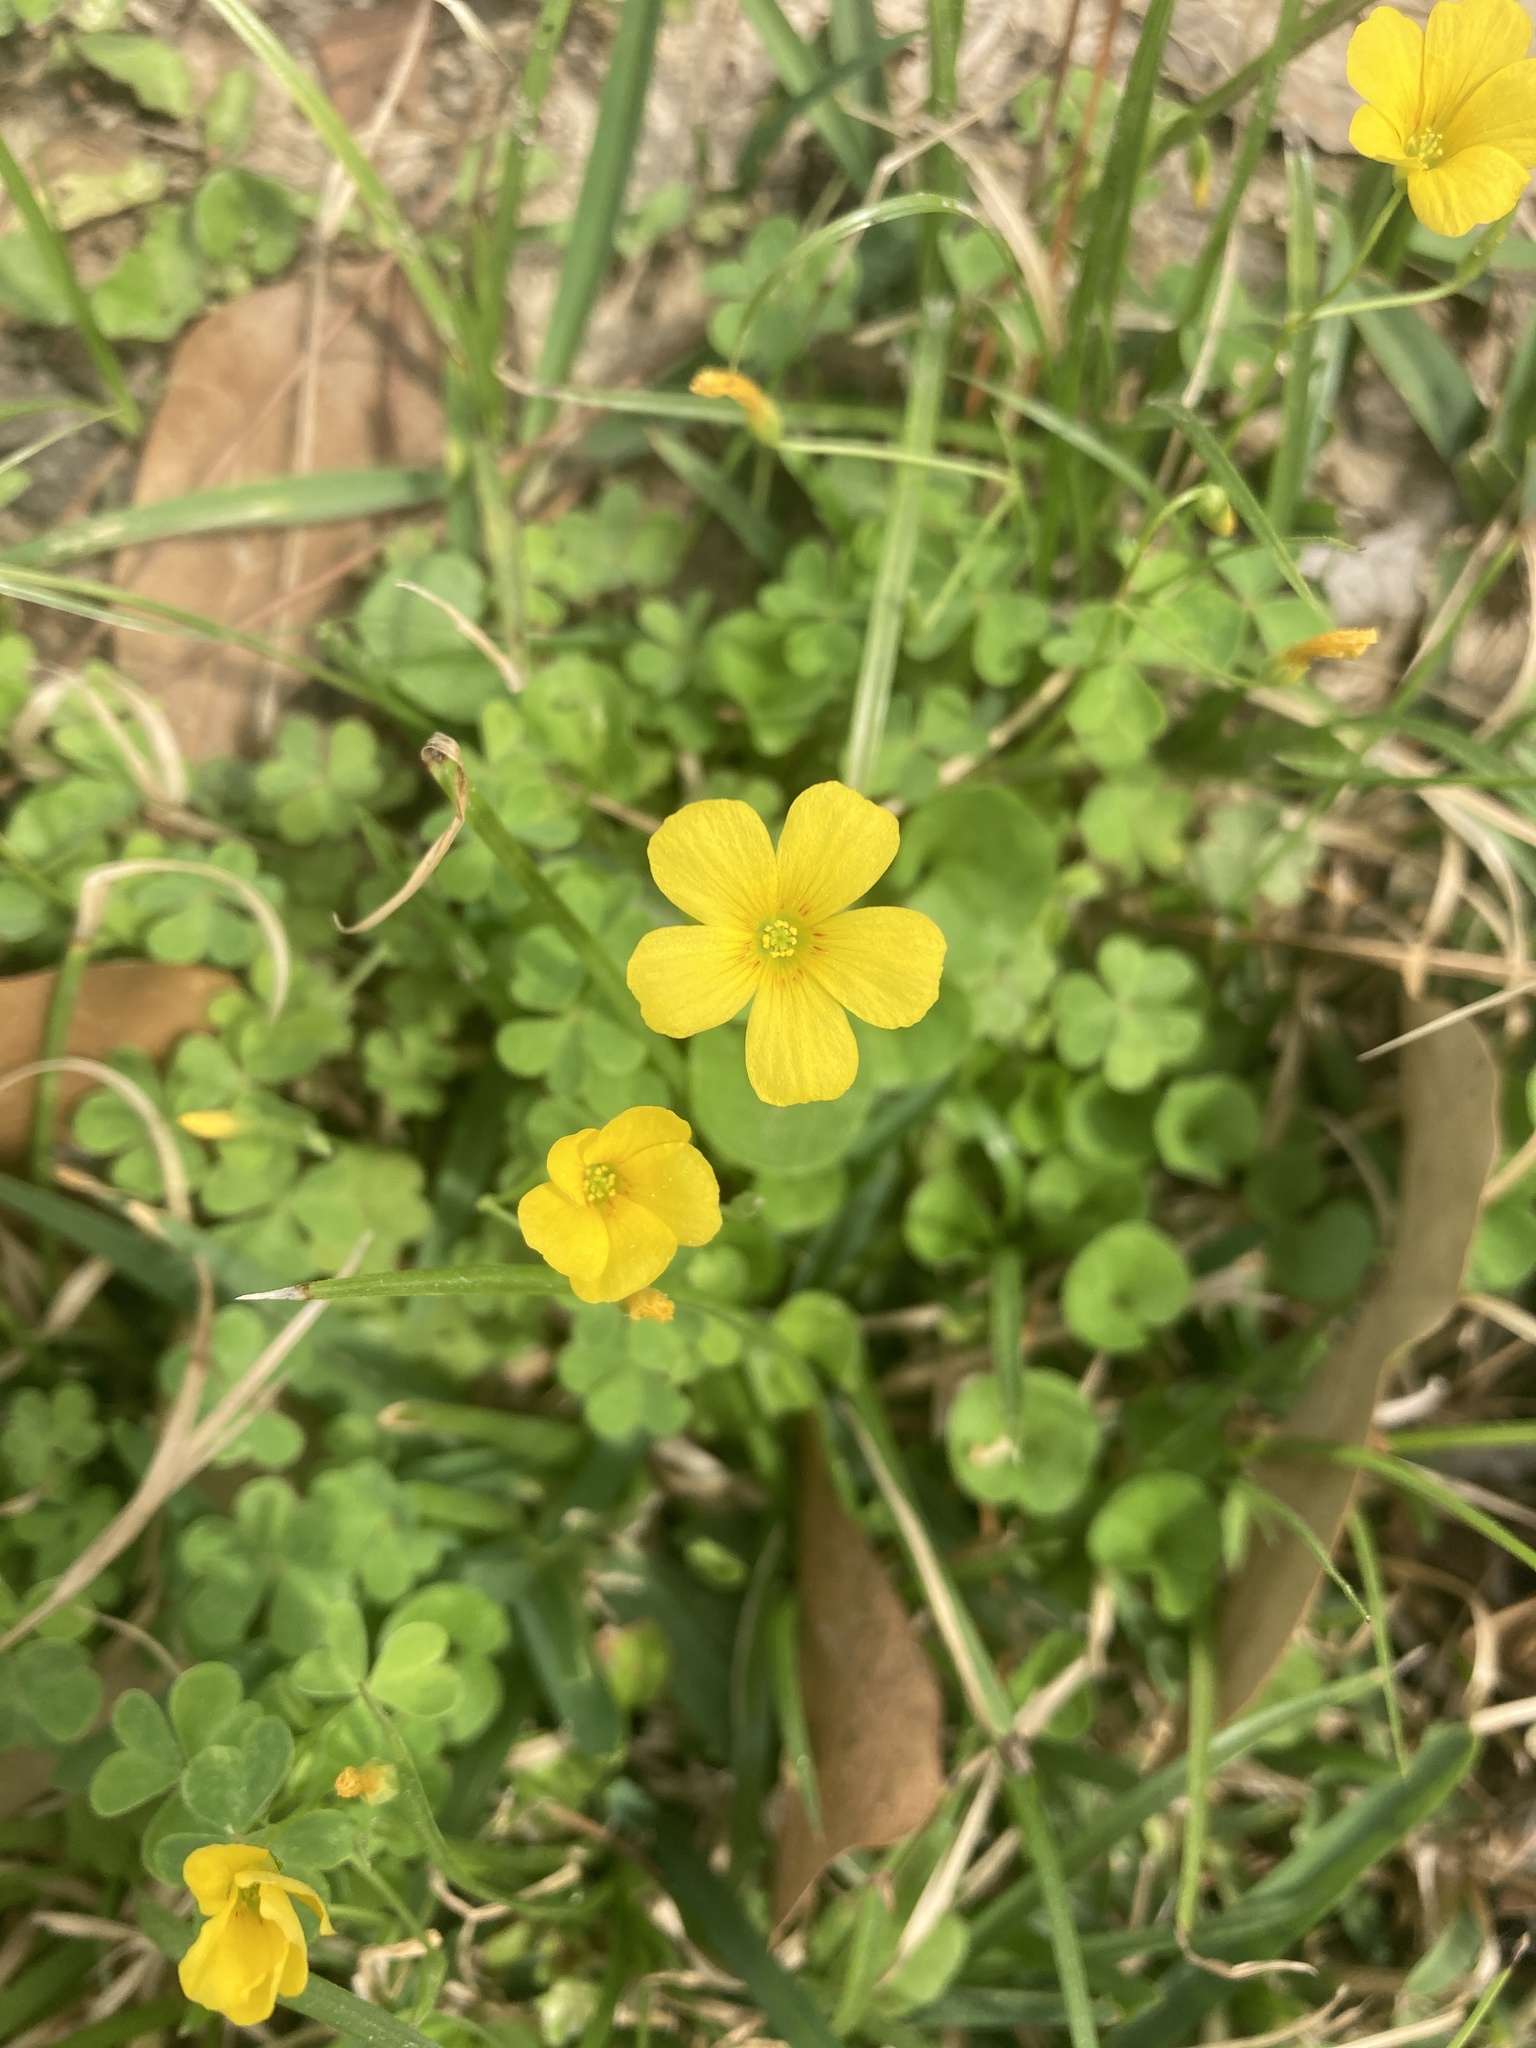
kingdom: Plantae
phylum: Tracheophyta
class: Magnoliopsida
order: Oxalidales
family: Oxalidaceae
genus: Oxalis
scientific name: Oxalis
